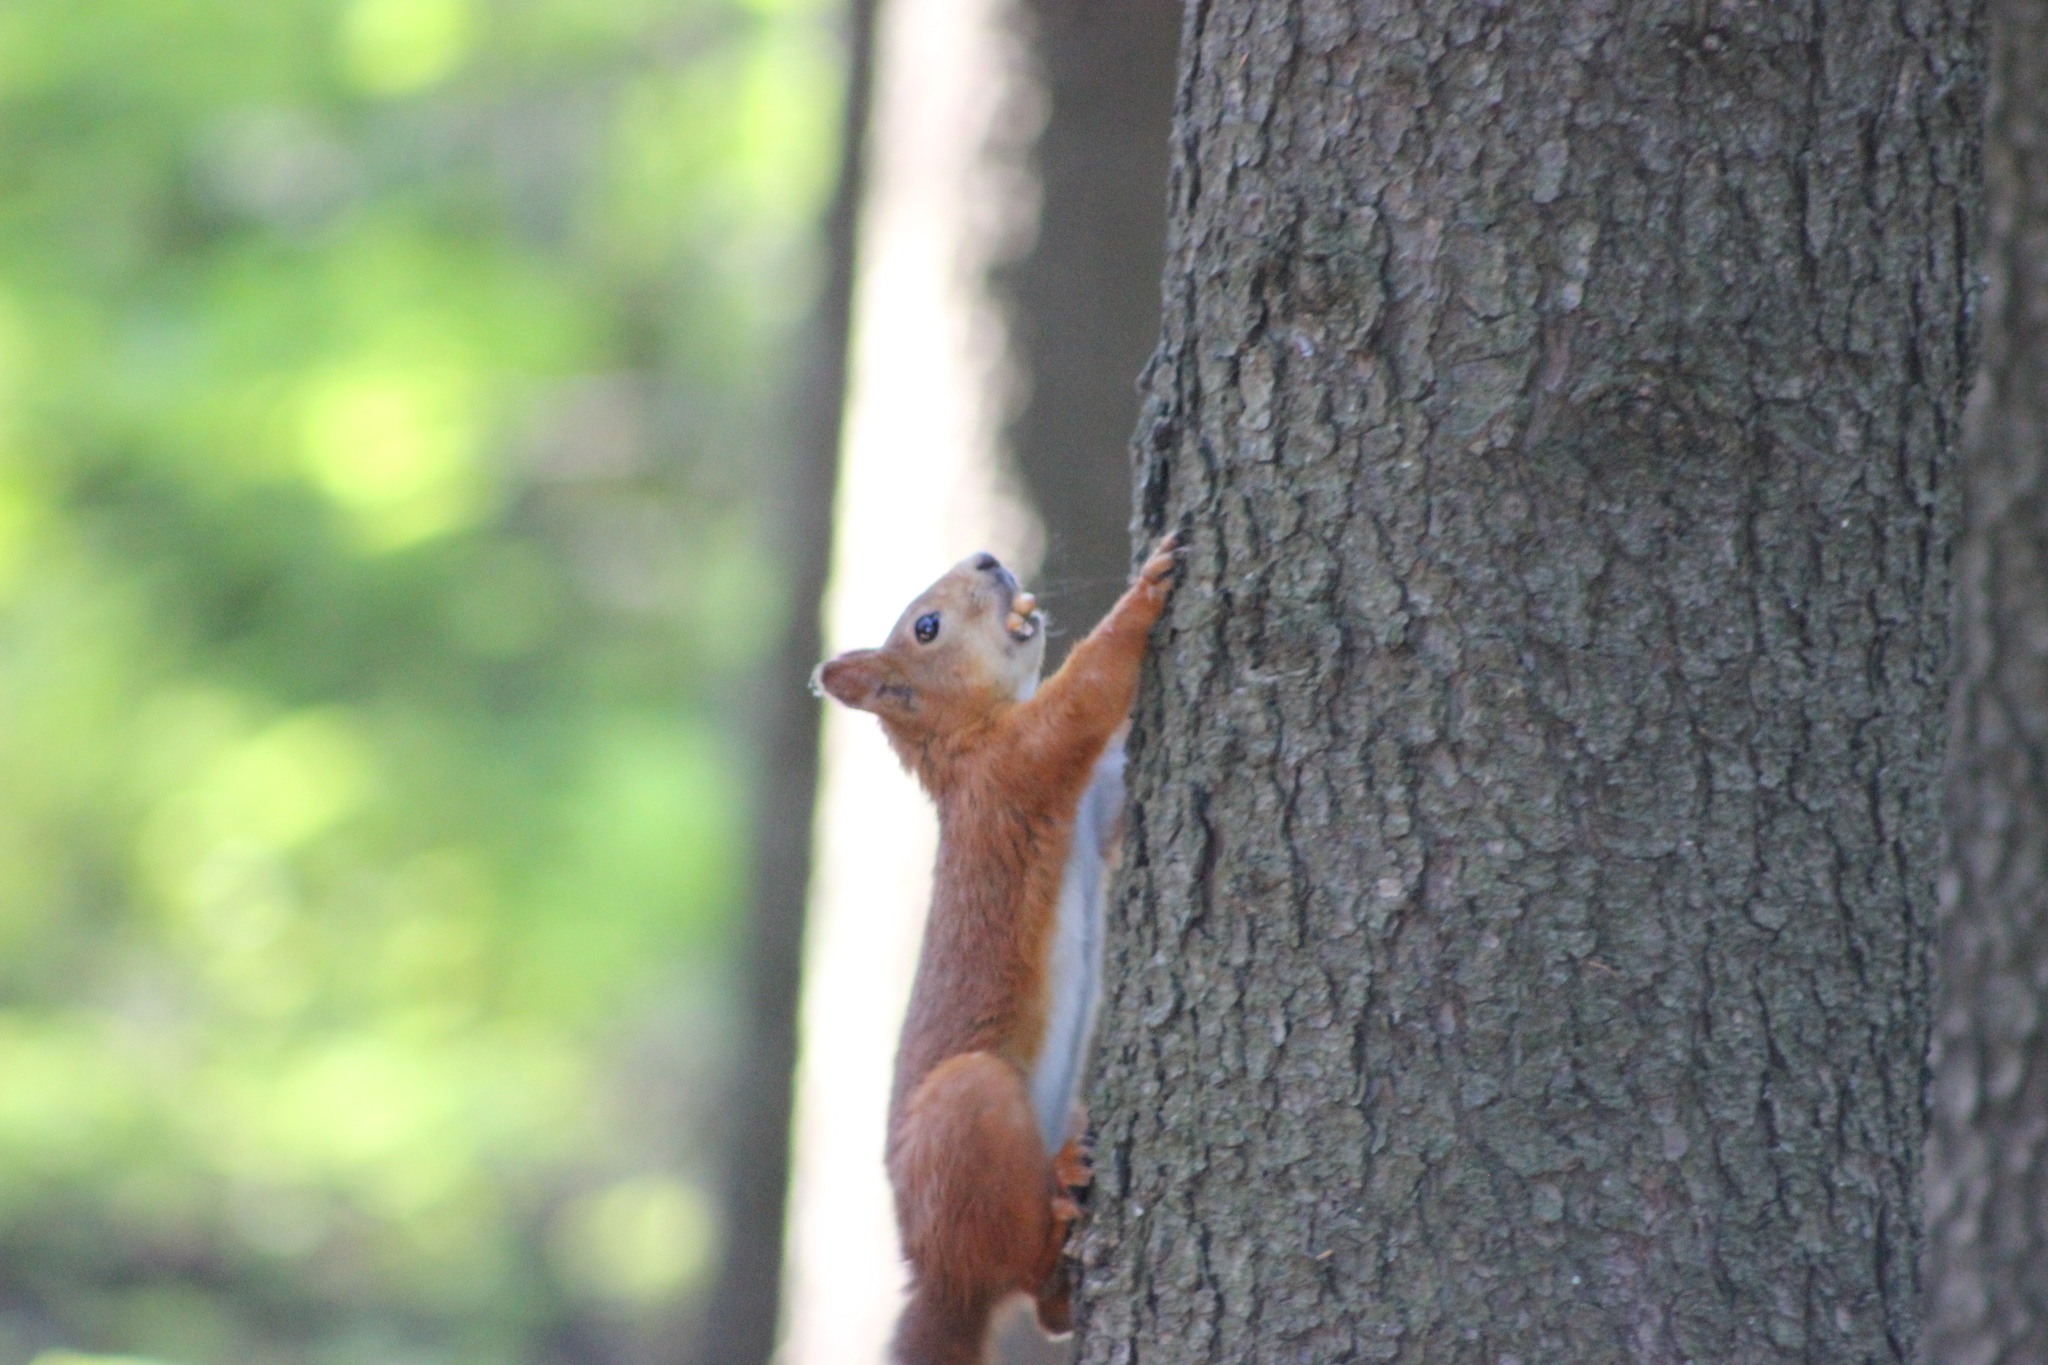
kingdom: Animalia
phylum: Chordata
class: Mammalia
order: Rodentia
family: Sciuridae
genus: Sciurus
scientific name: Sciurus vulgaris
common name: Eurasian red squirrel
